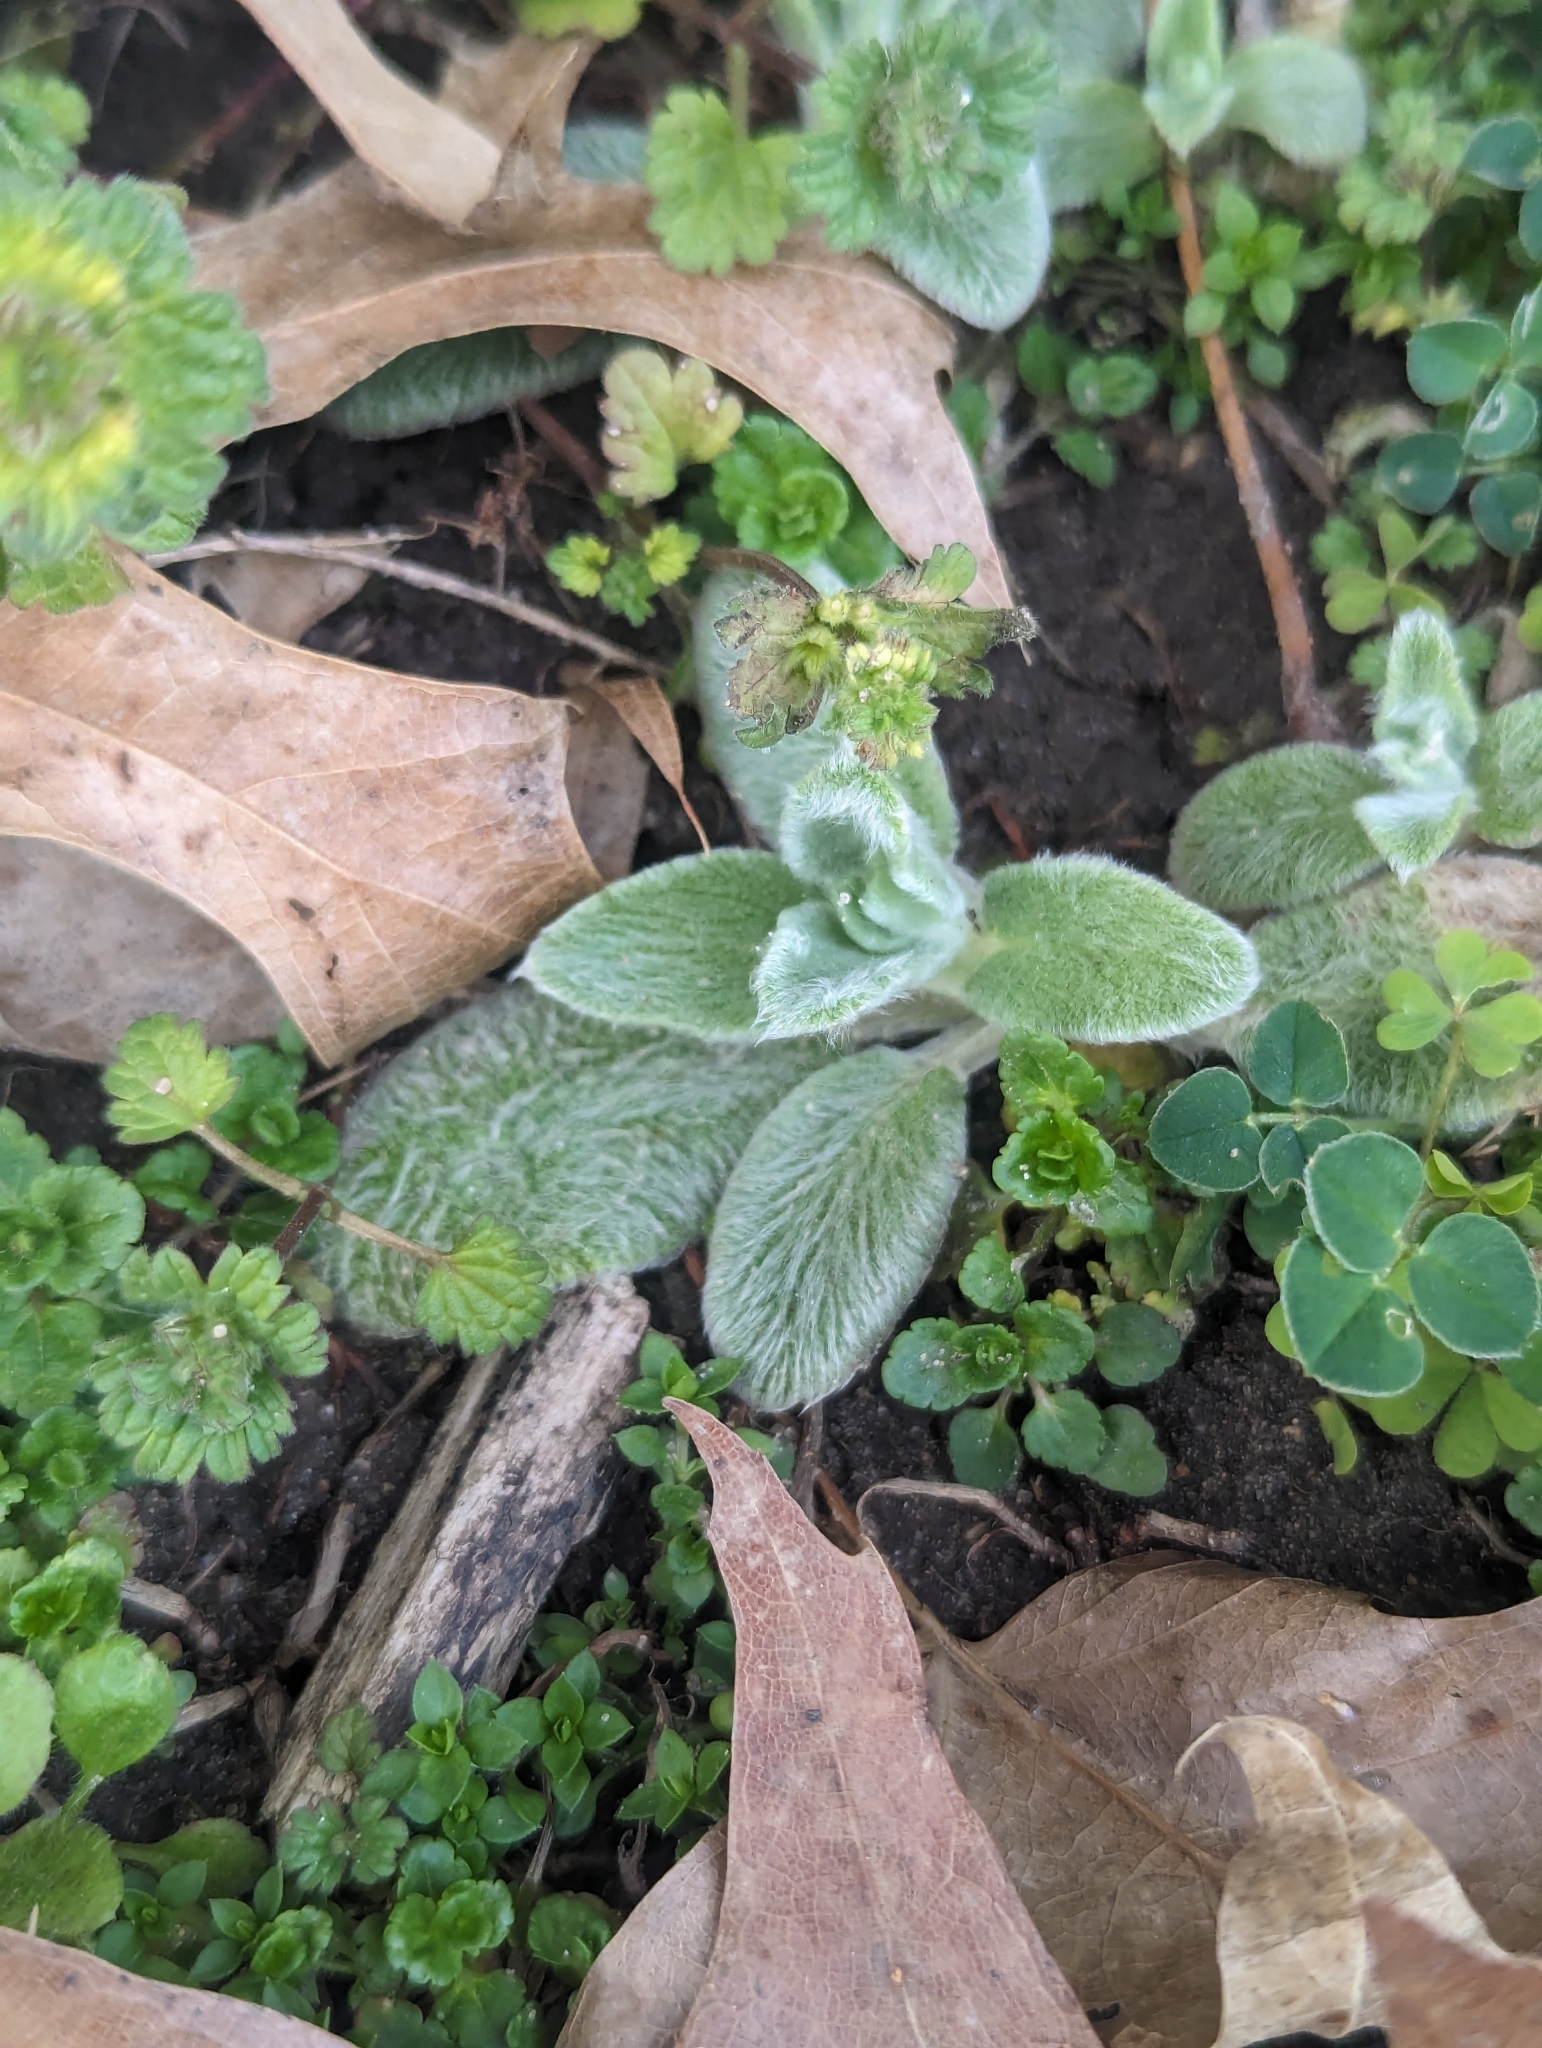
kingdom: Plantae
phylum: Tracheophyta
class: Magnoliopsida
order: Lamiales
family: Lamiaceae
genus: Stachys
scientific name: Stachys byzantina
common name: Lamb's-ear
